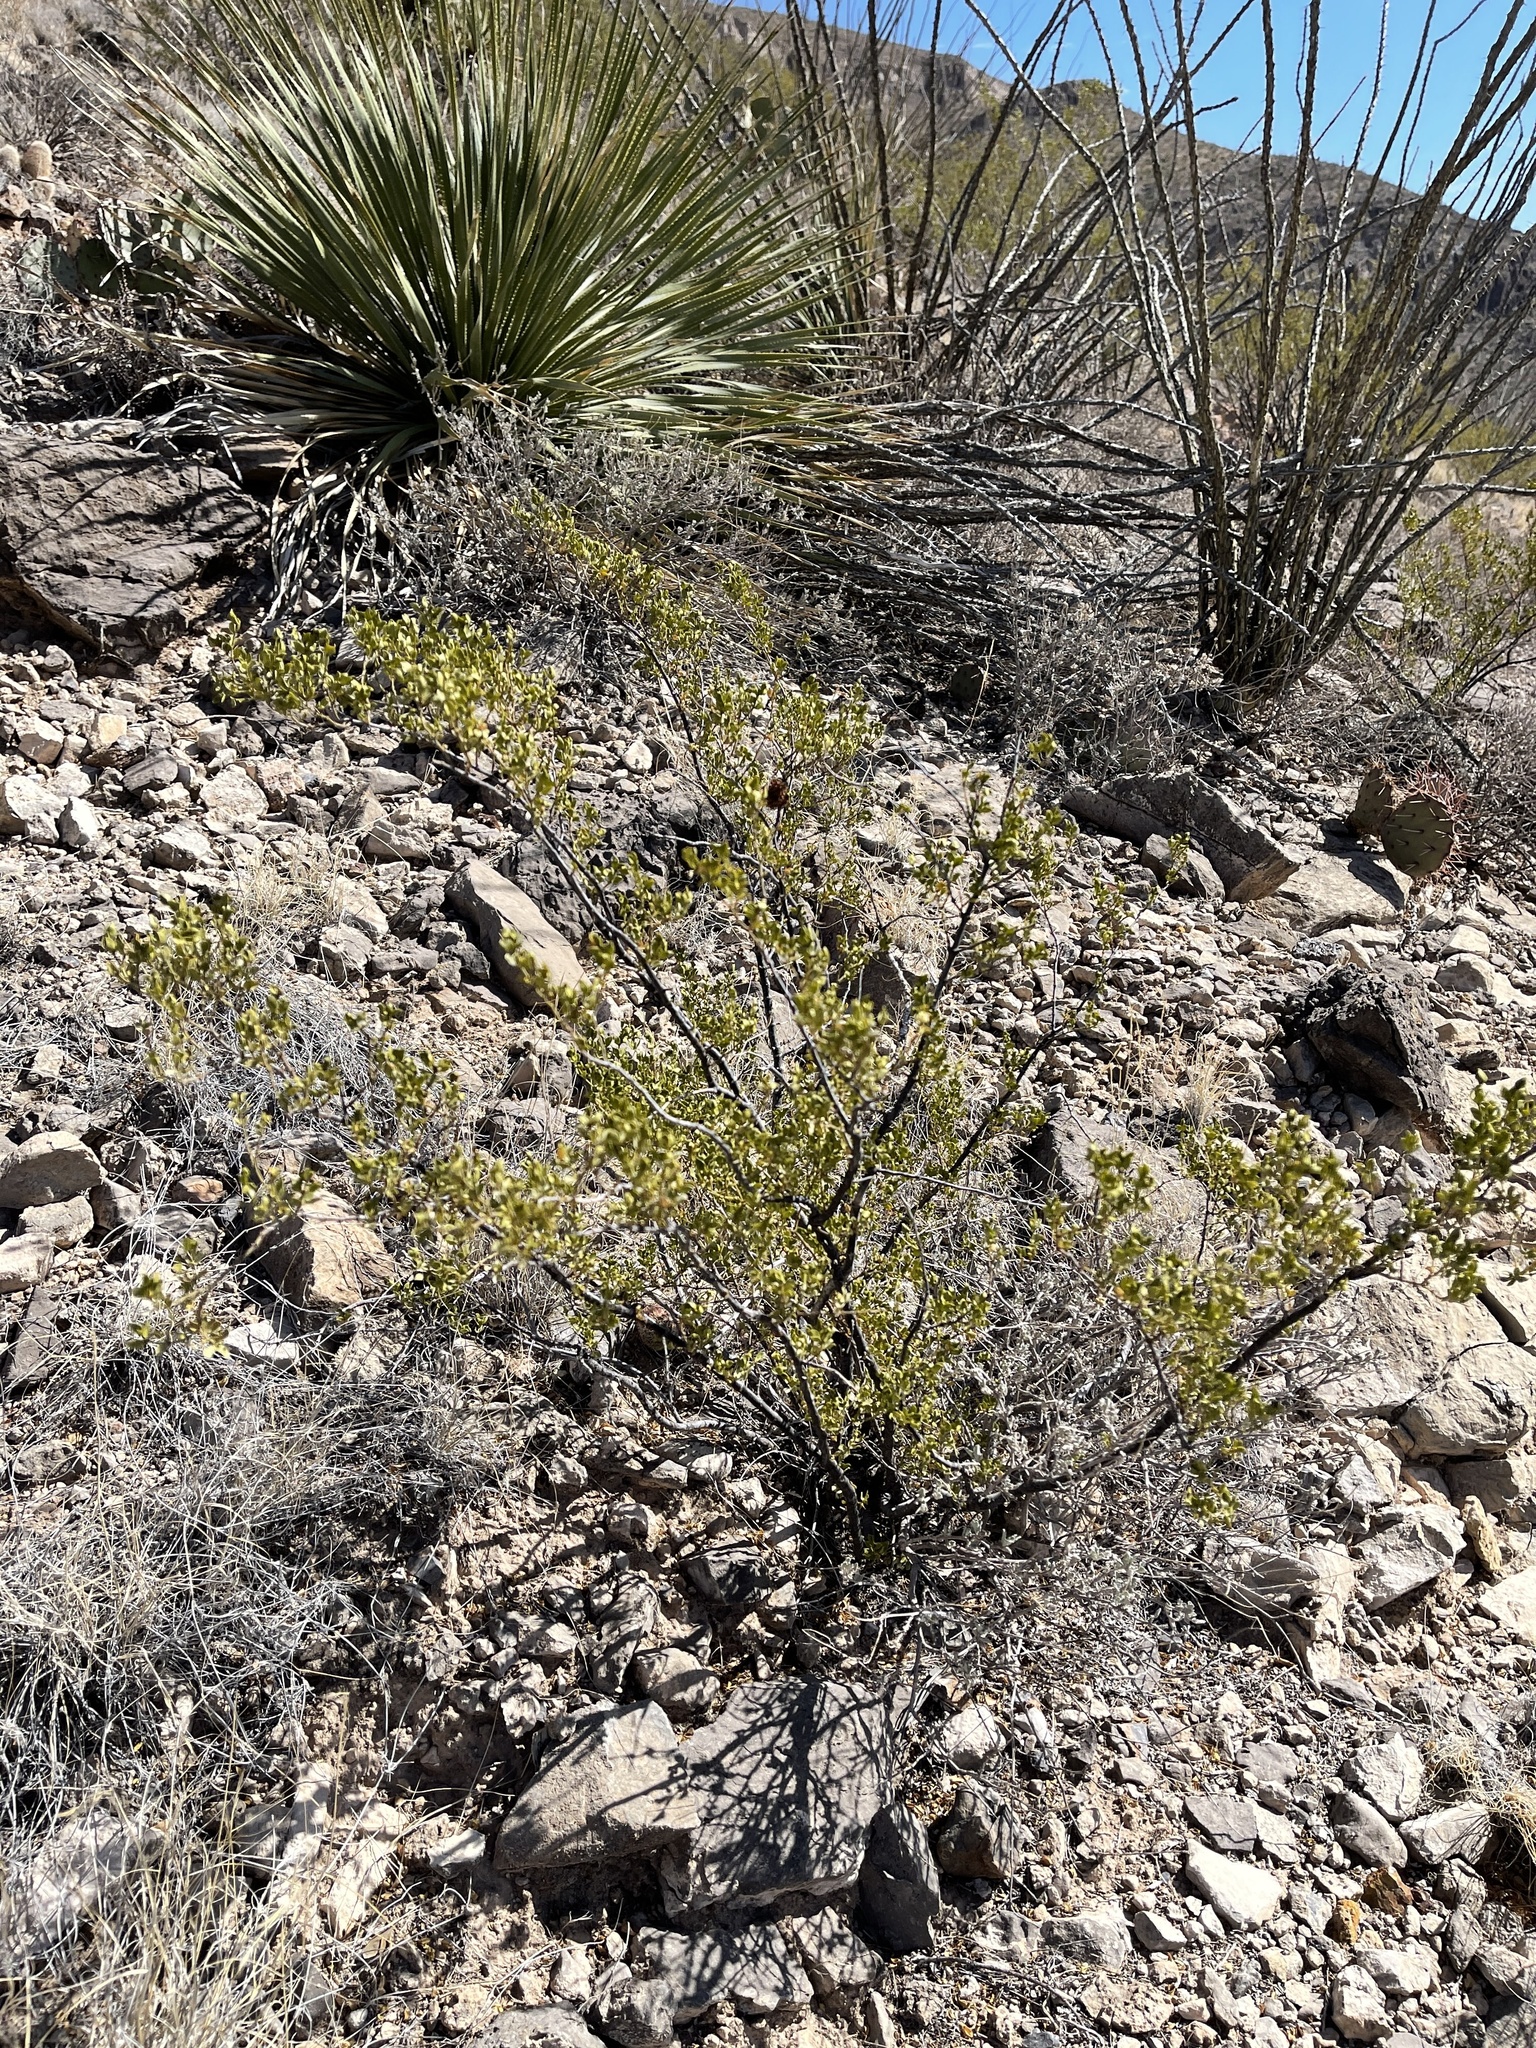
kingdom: Plantae
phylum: Tracheophyta
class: Magnoliopsida
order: Zygophyllales
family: Zygophyllaceae
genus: Larrea
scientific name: Larrea tridentata
